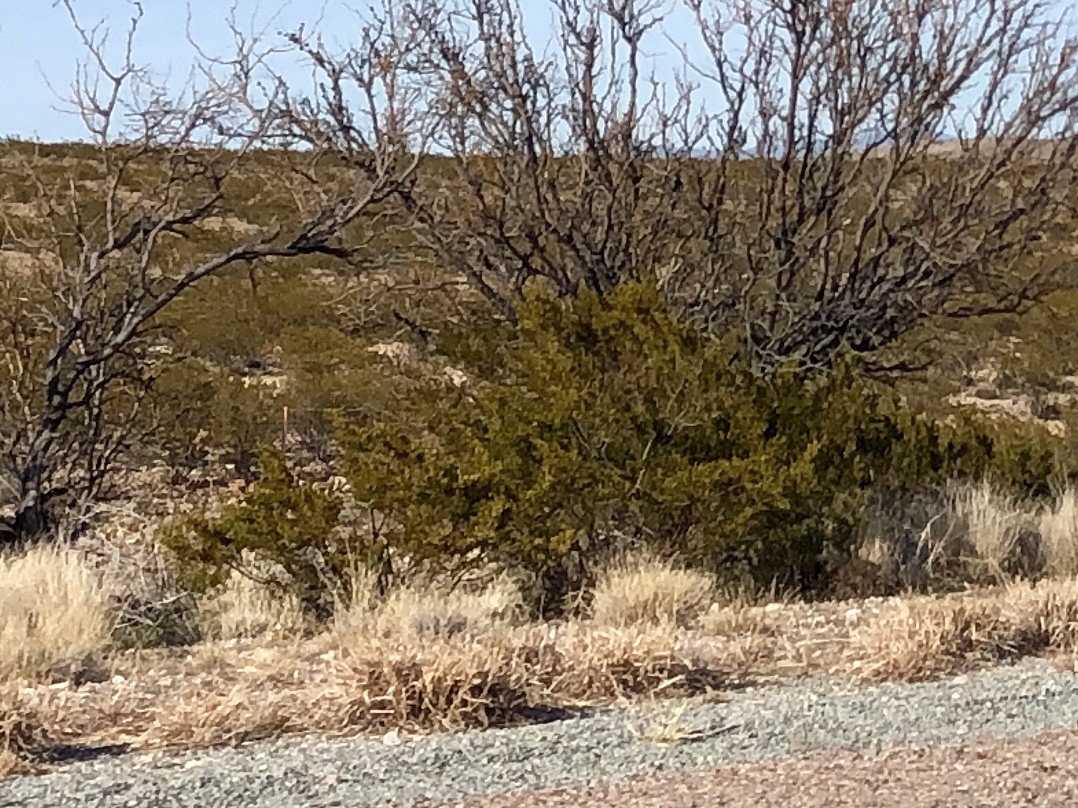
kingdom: Plantae
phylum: Tracheophyta
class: Magnoliopsida
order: Zygophyllales
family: Zygophyllaceae
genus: Larrea
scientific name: Larrea tridentata
